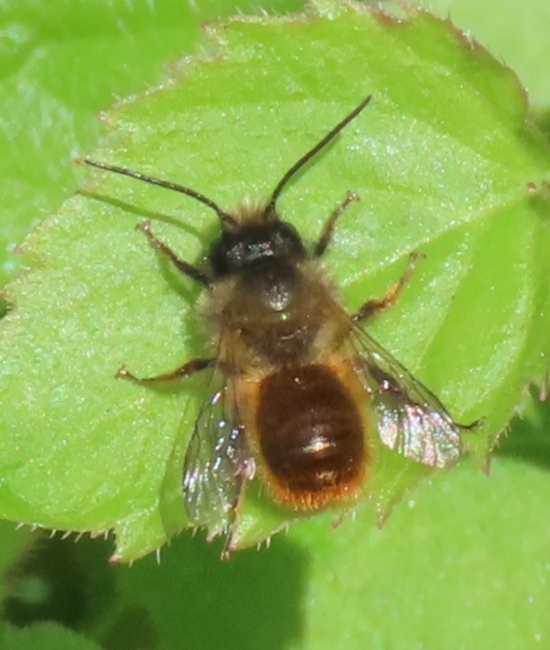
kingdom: Animalia
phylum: Arthropoda
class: Insecta
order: Hymenoptera
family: Megachilidae
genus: Osmia
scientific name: Osmia bicornis
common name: Red mason bee
